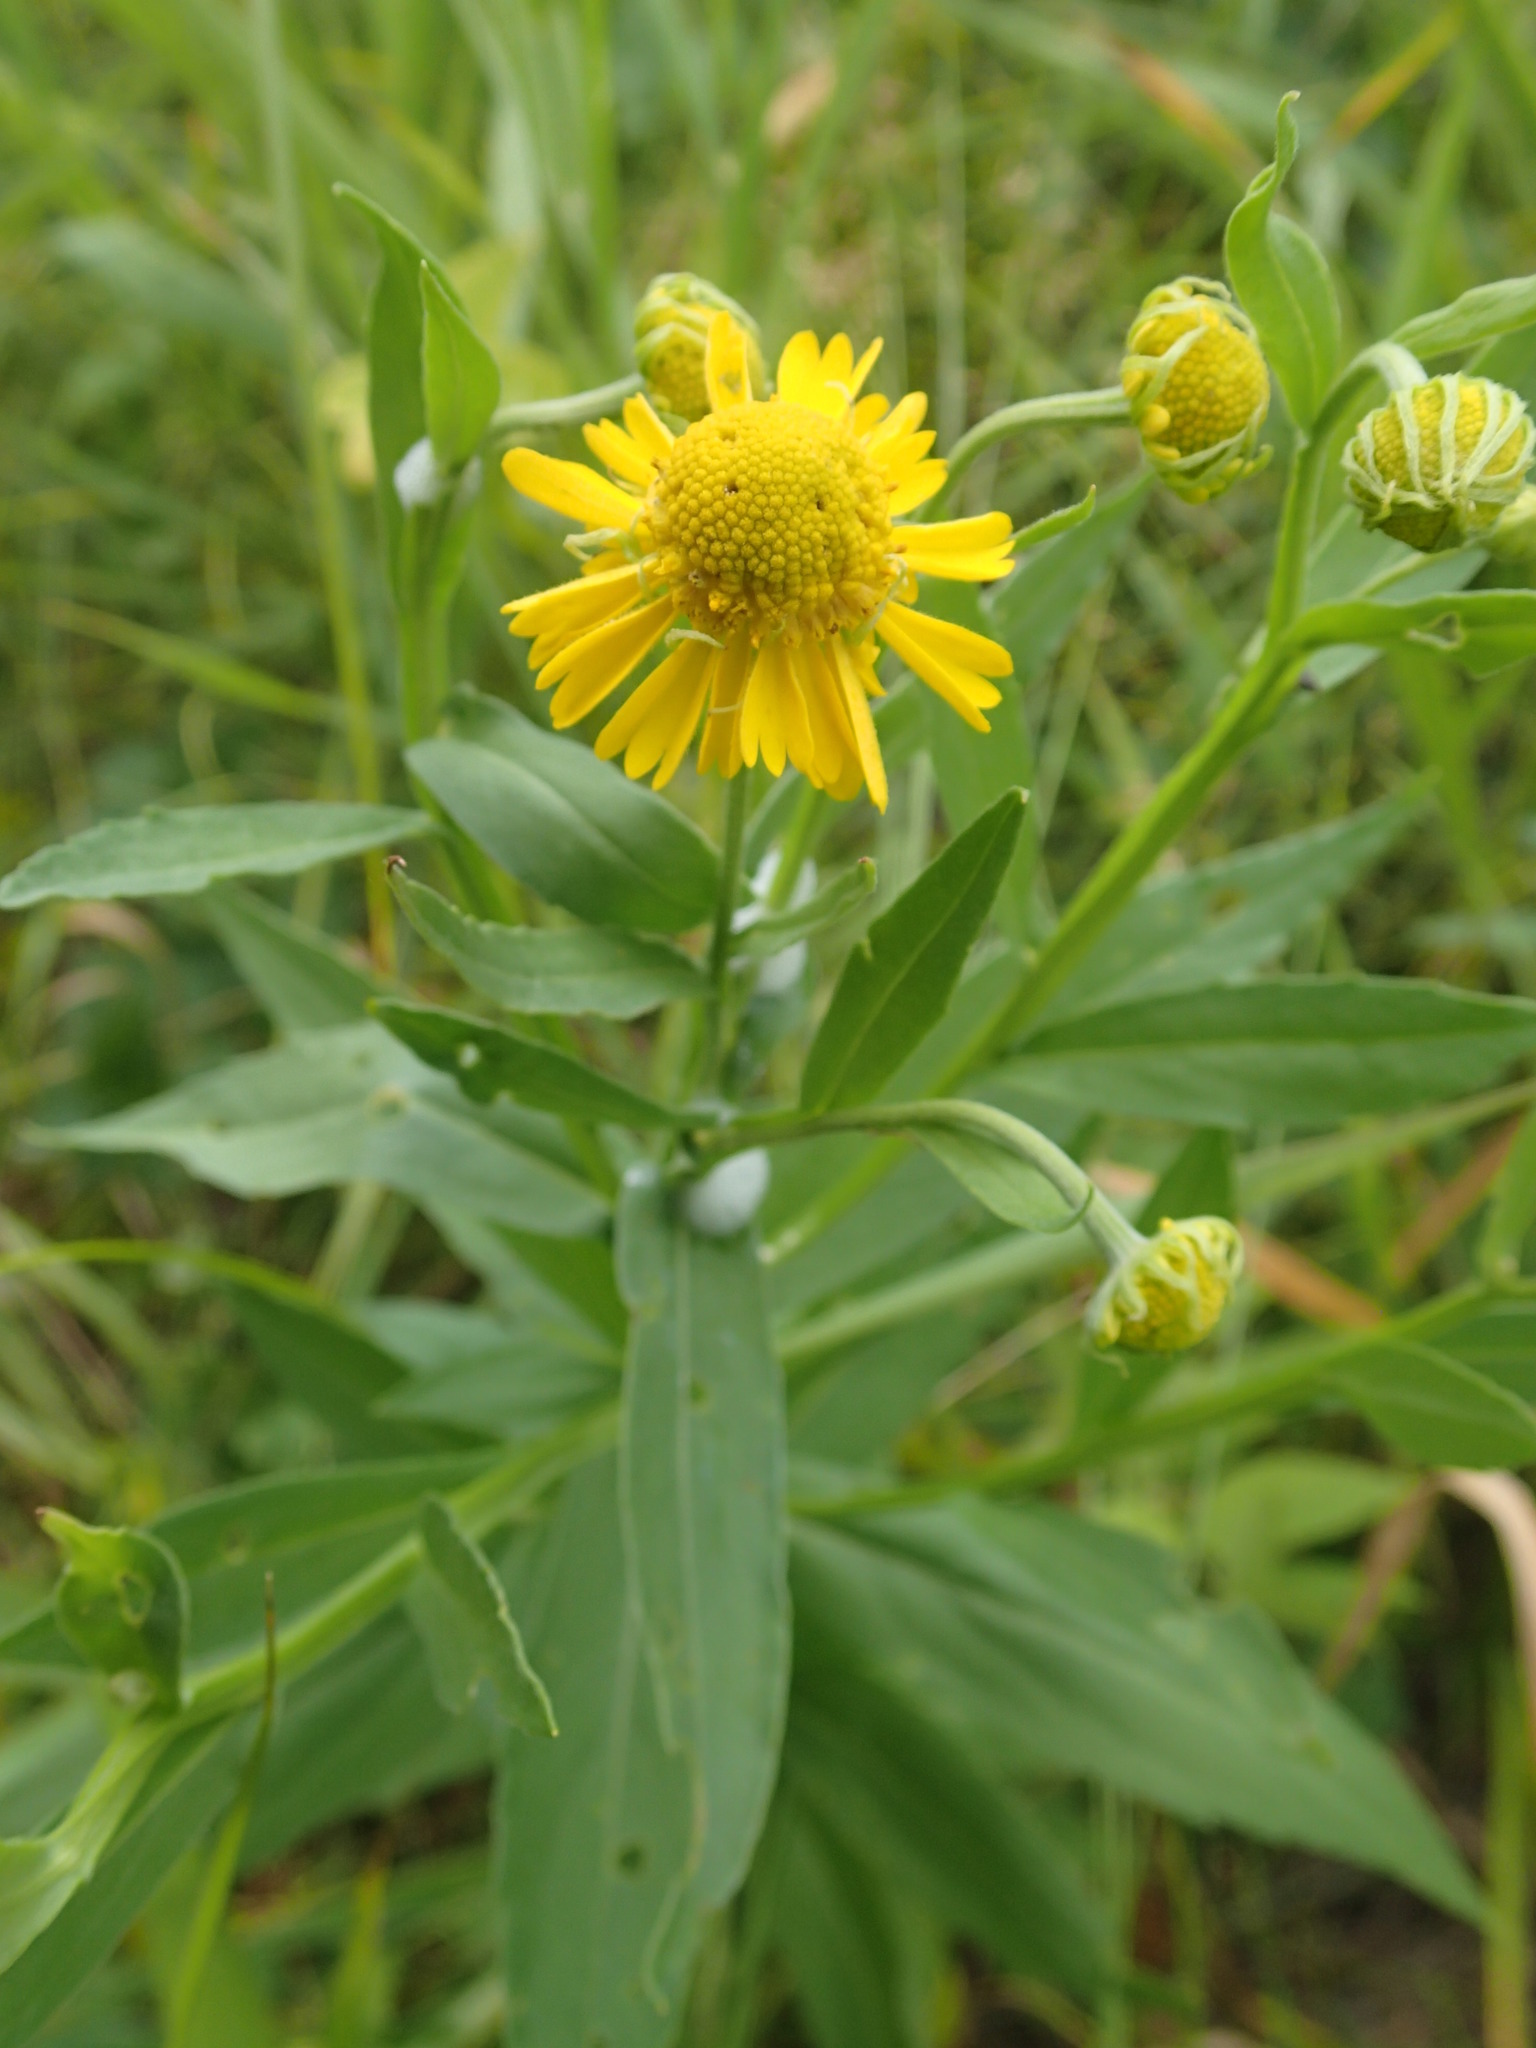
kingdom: Plantae
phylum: Tracheophyta
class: Magnoliopsida
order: Asterales
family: Asteraceae
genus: Helenium
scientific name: Helenium autumnale
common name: Sneezeweed
